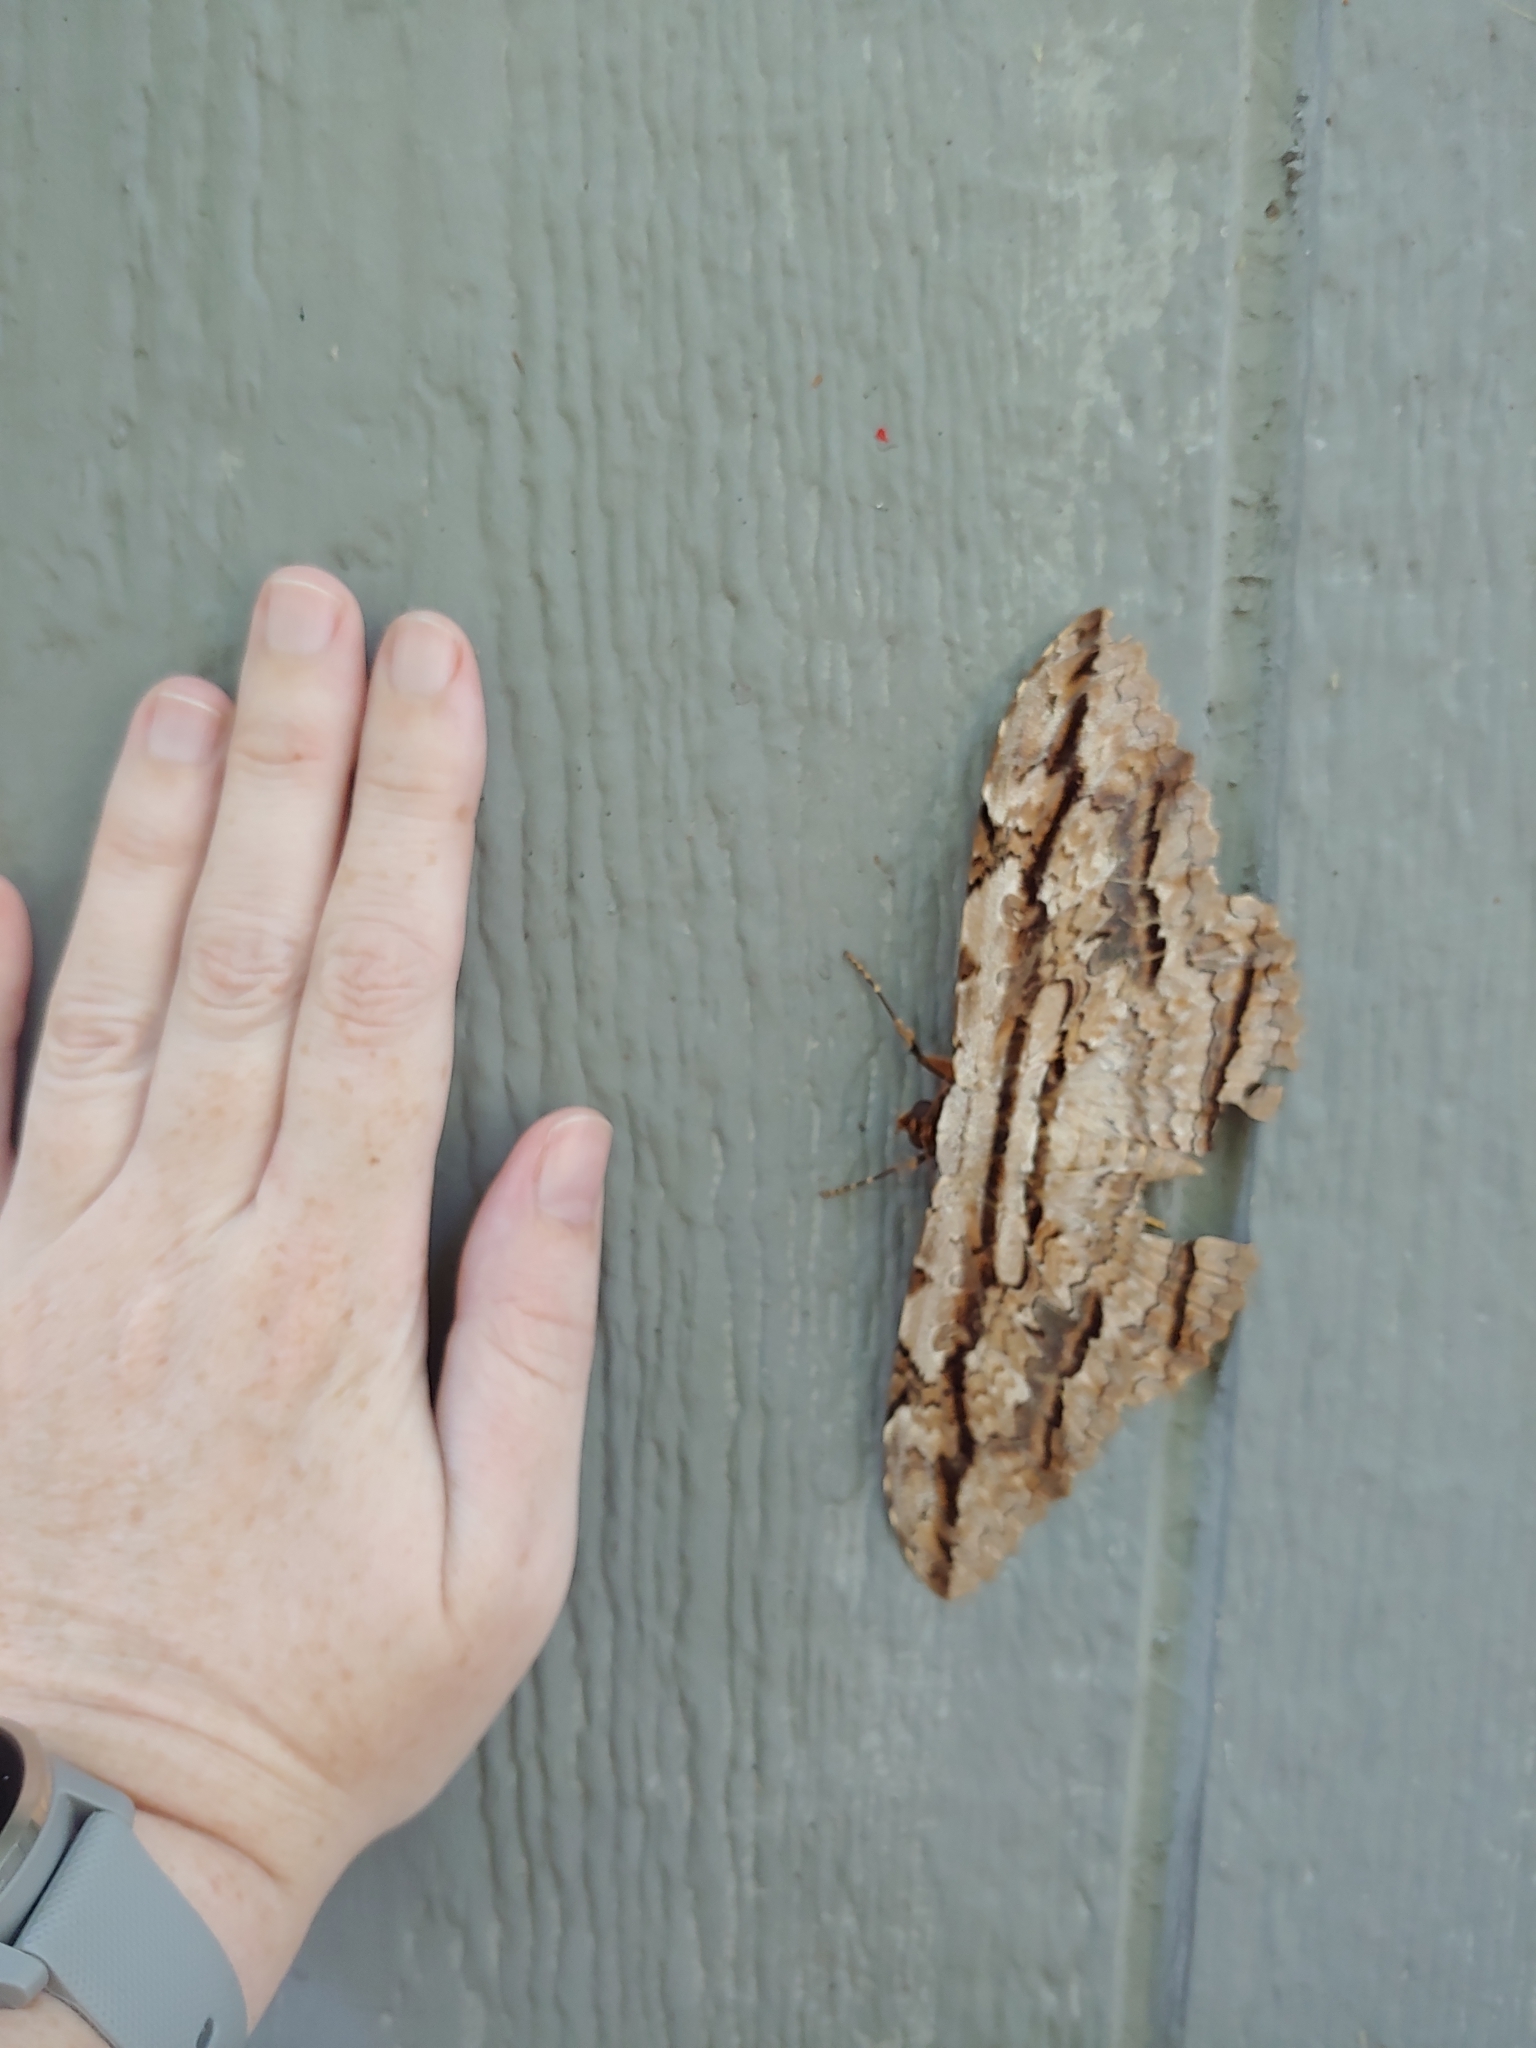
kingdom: Animalia
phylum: Arthropoda
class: Insecta
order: Lepidoptera
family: Erebidae
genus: Thysania
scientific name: Thysania zenobia
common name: Owl moth
